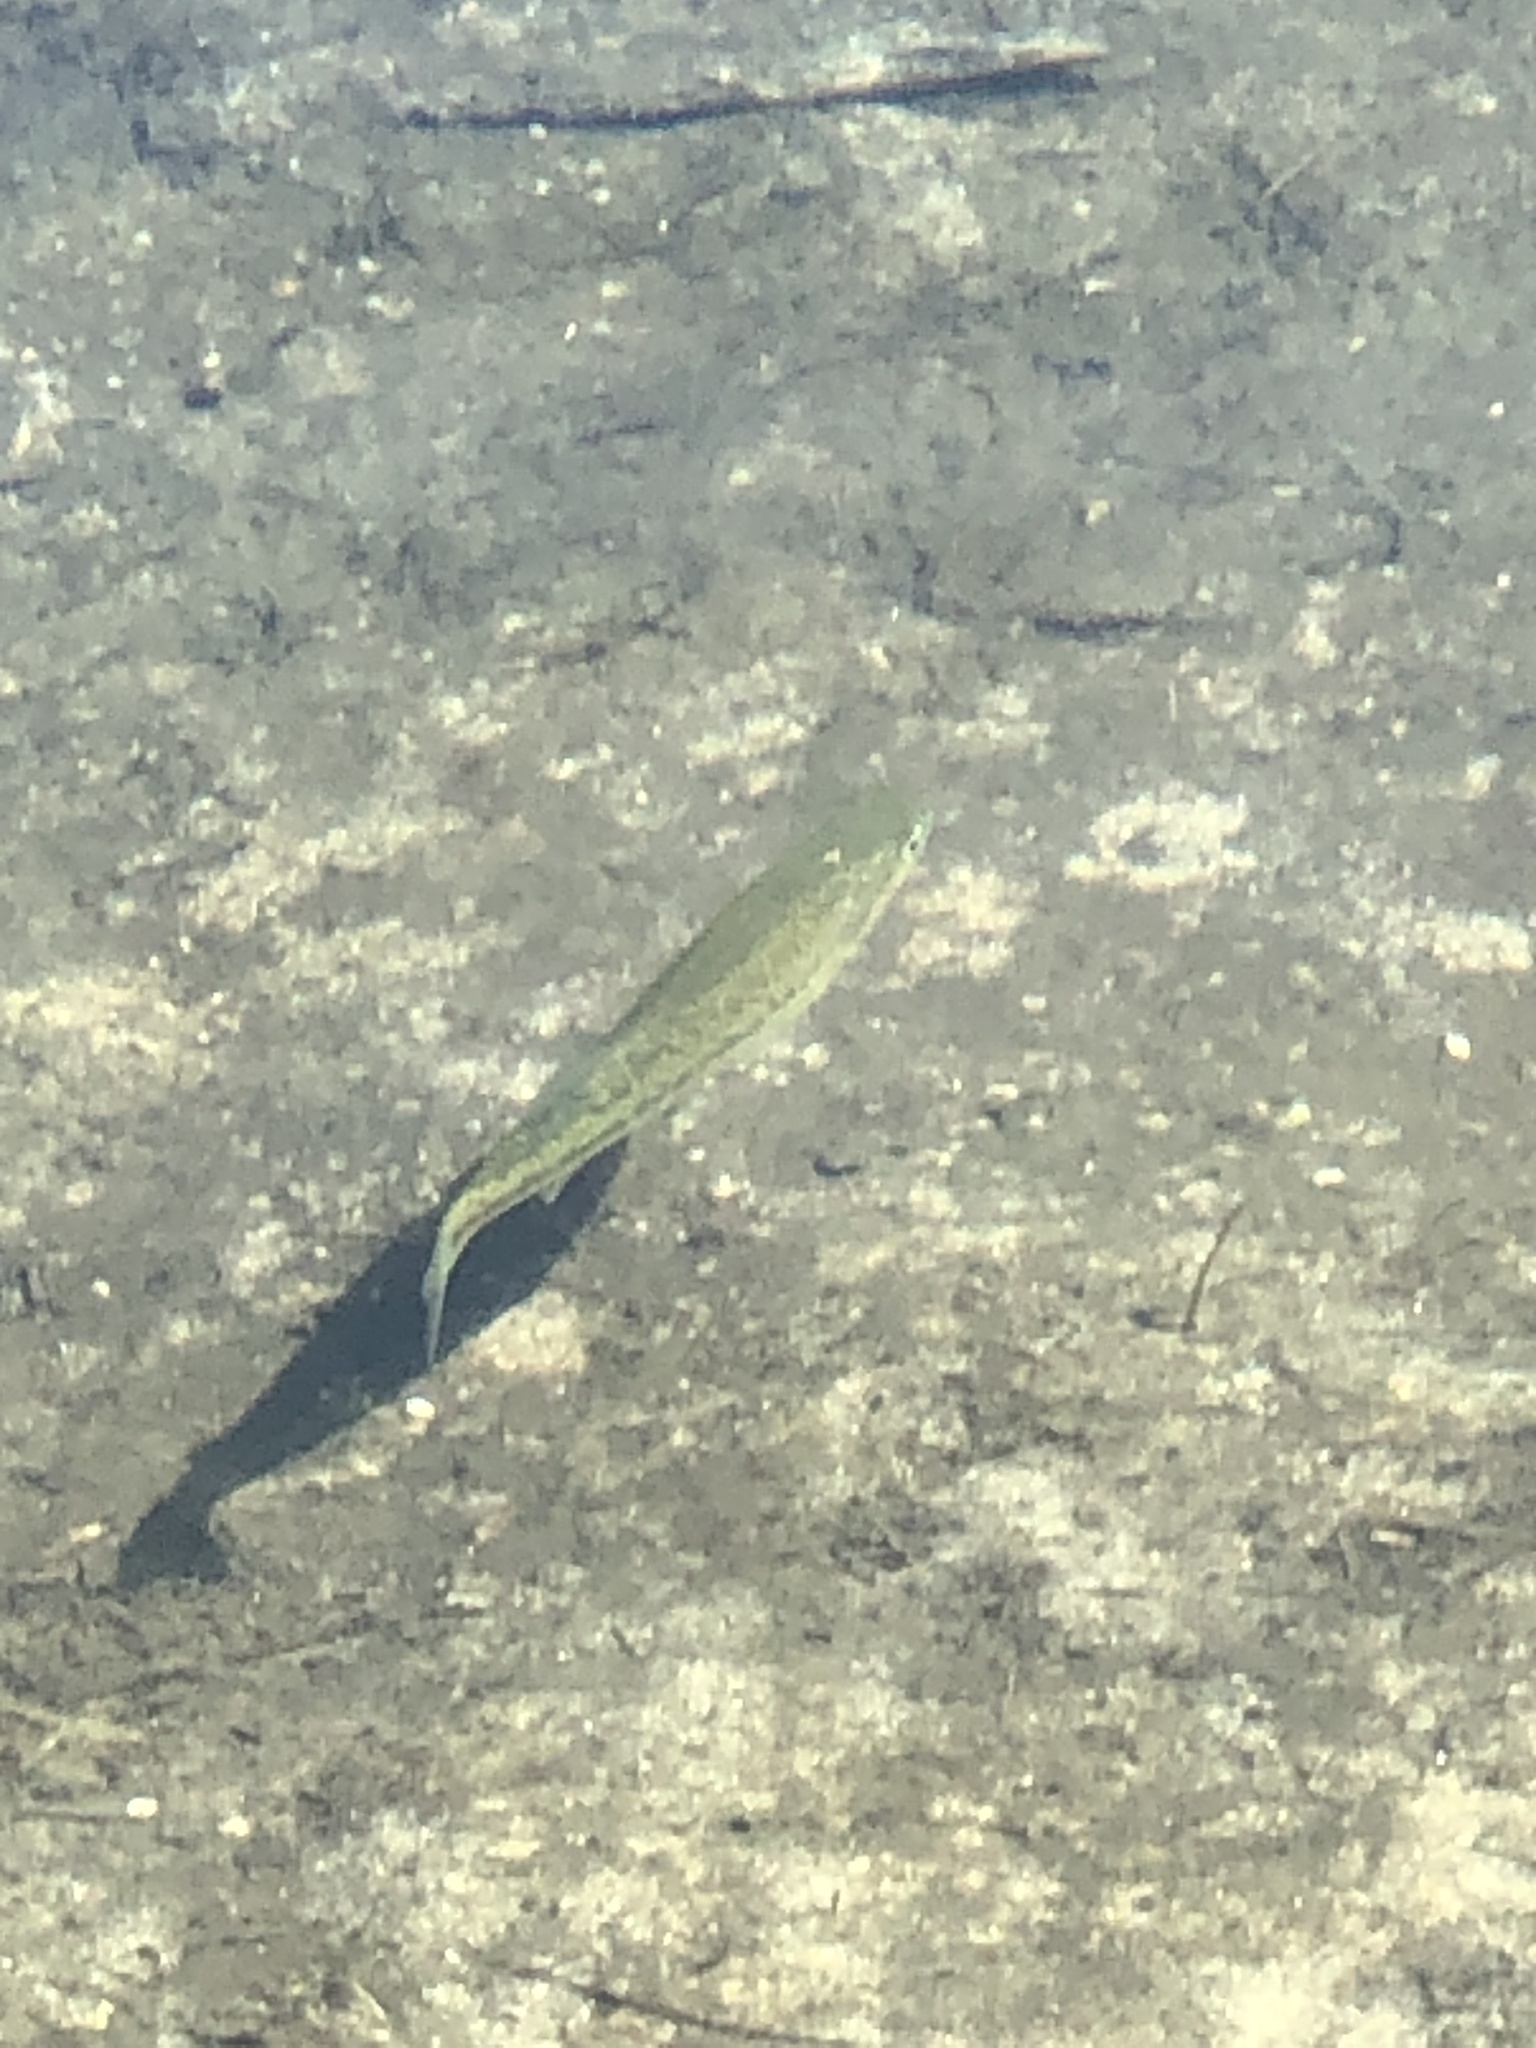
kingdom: Animalia
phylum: Chordata
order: Perciformes
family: Centrarchidae
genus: Micropterus
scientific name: Micropterus
